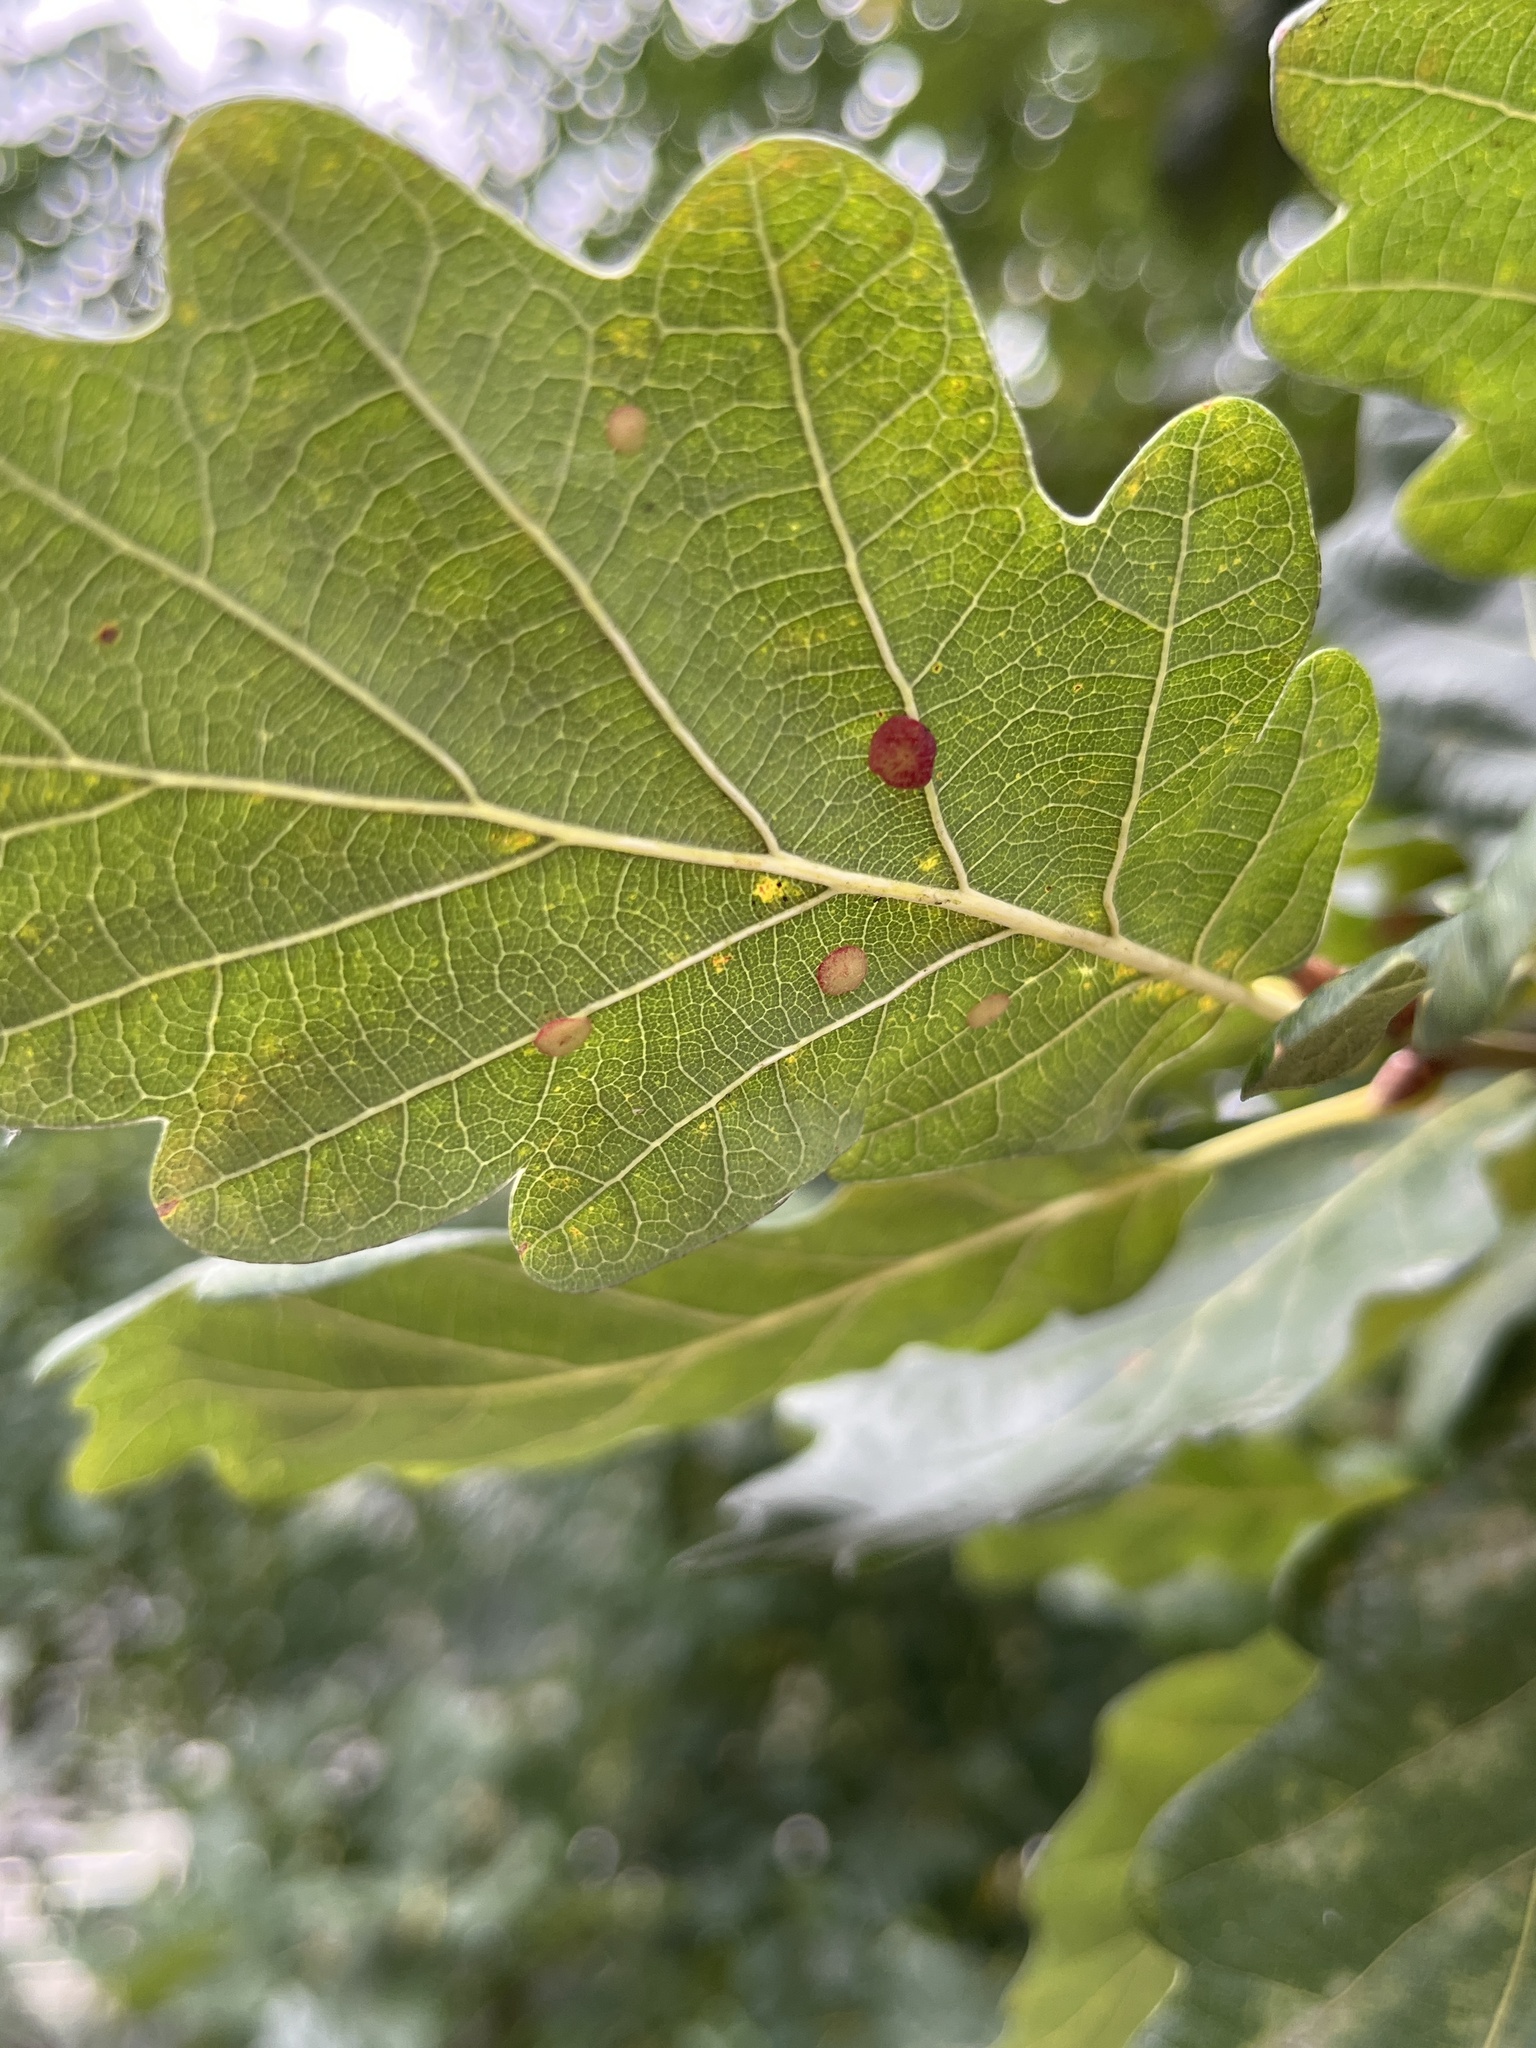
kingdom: Animalia
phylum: Arthropoda
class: Insecta
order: Hymenoptera
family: Cynipidae
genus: Neuroterus
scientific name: Neuroterus albipes
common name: Smooth spangle gall
